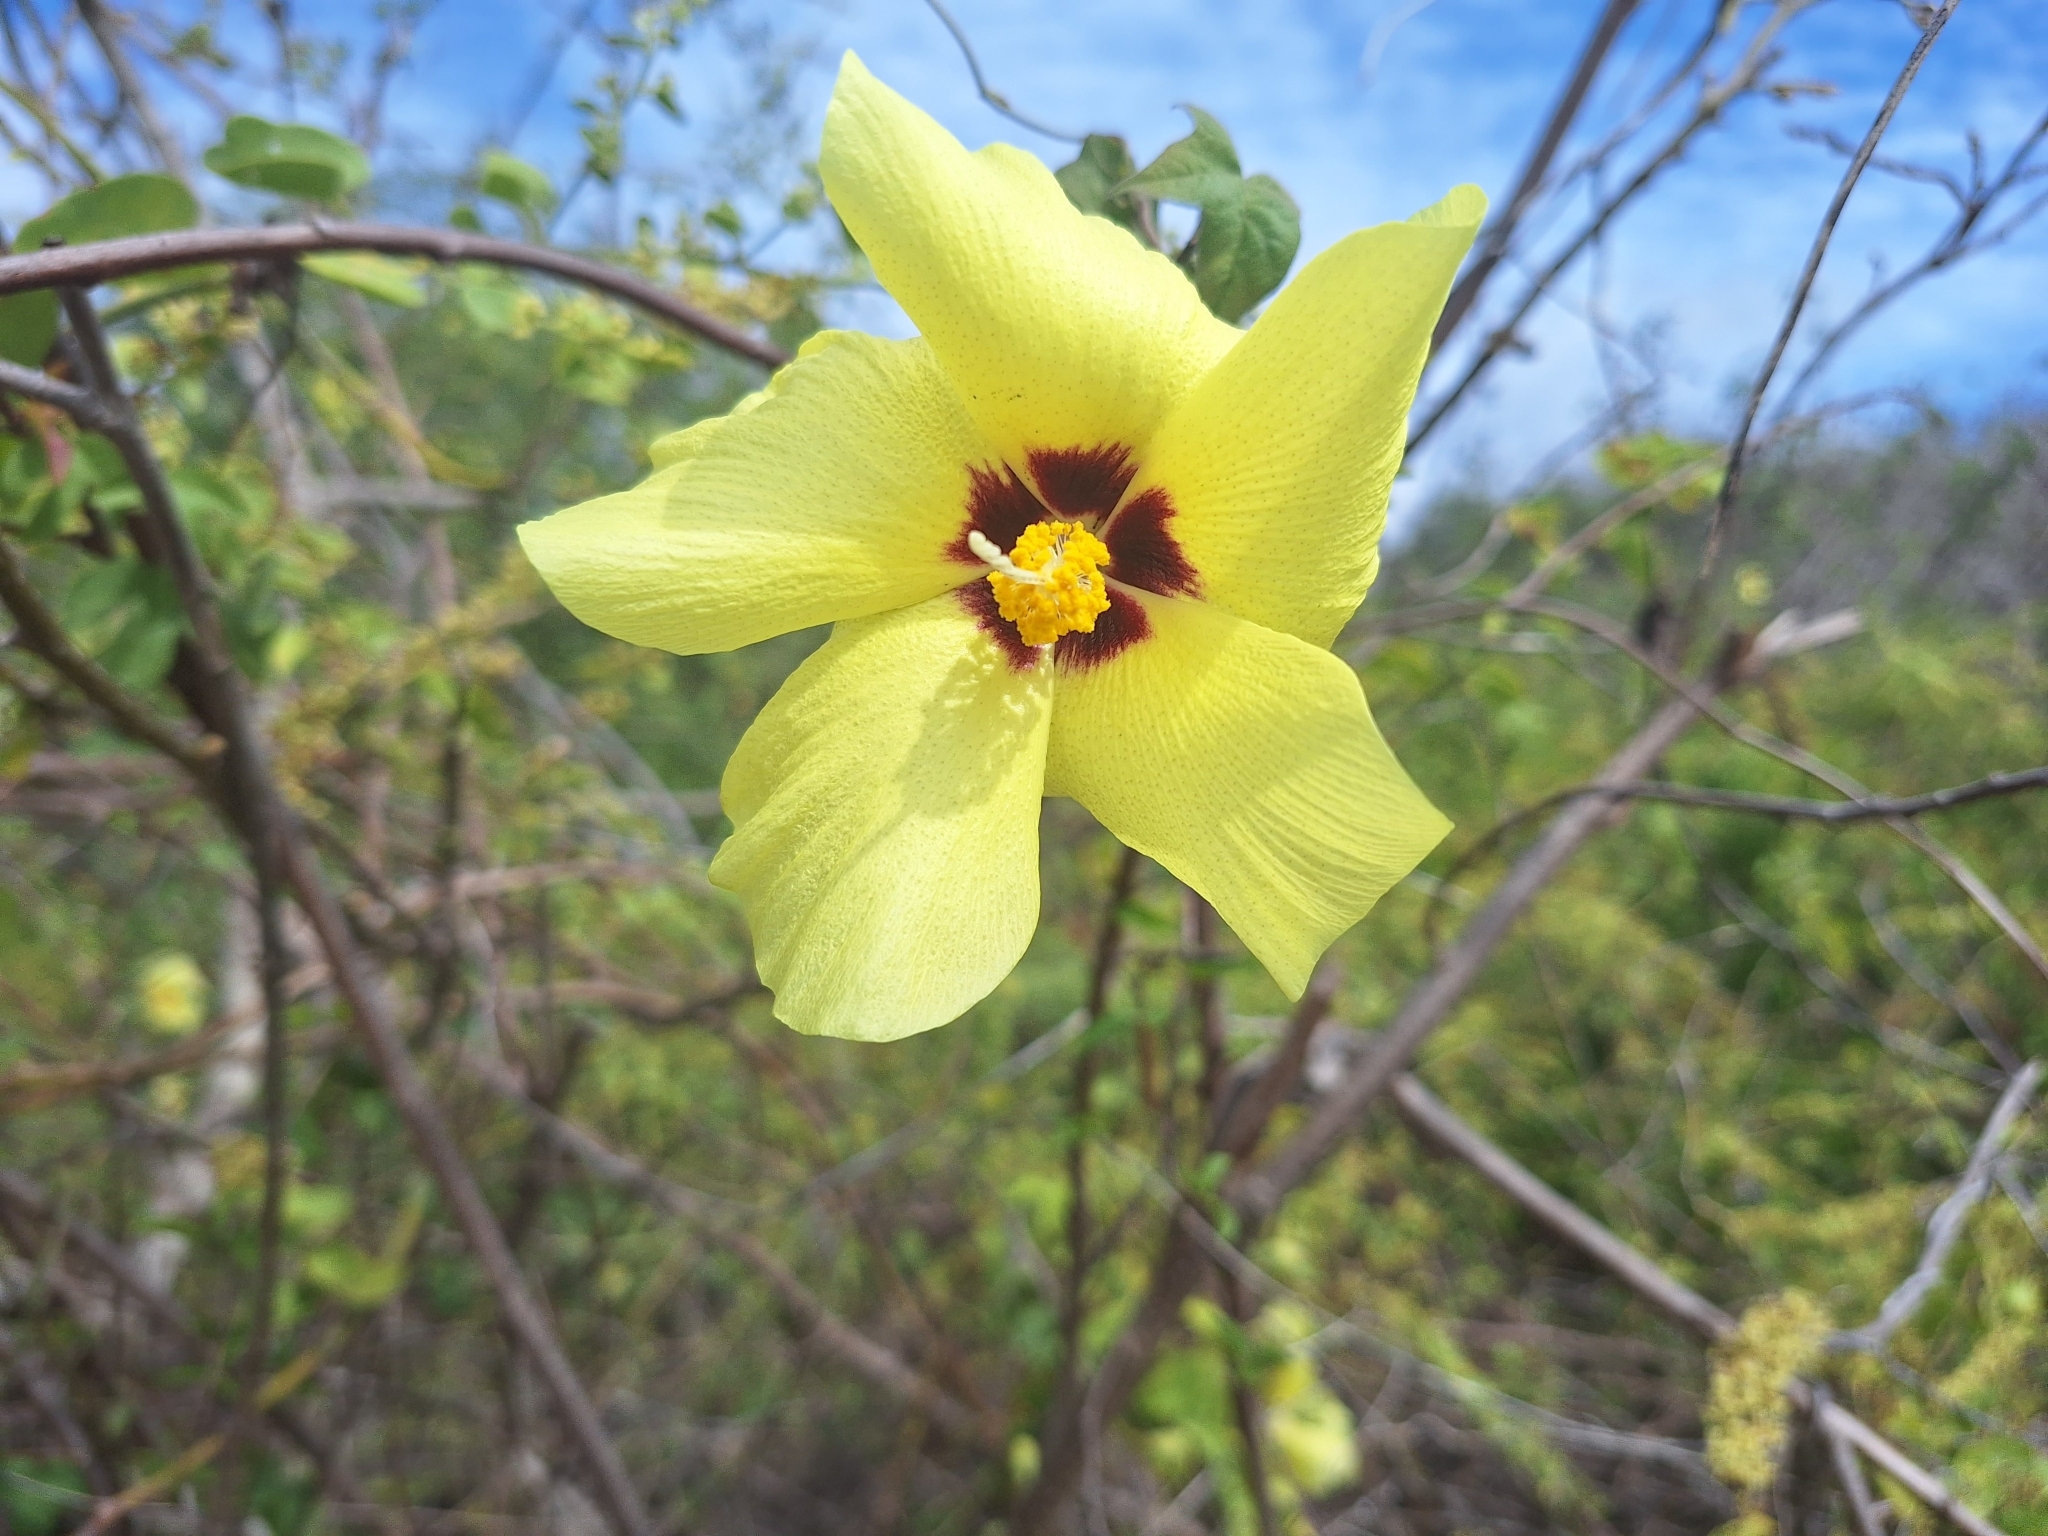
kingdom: Plantae
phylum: Tracheophyta
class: Magnoliopsida
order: Malvales
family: Malvaceae
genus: Gossypium
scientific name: Gossypium darwinii
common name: Darwin's cotton
